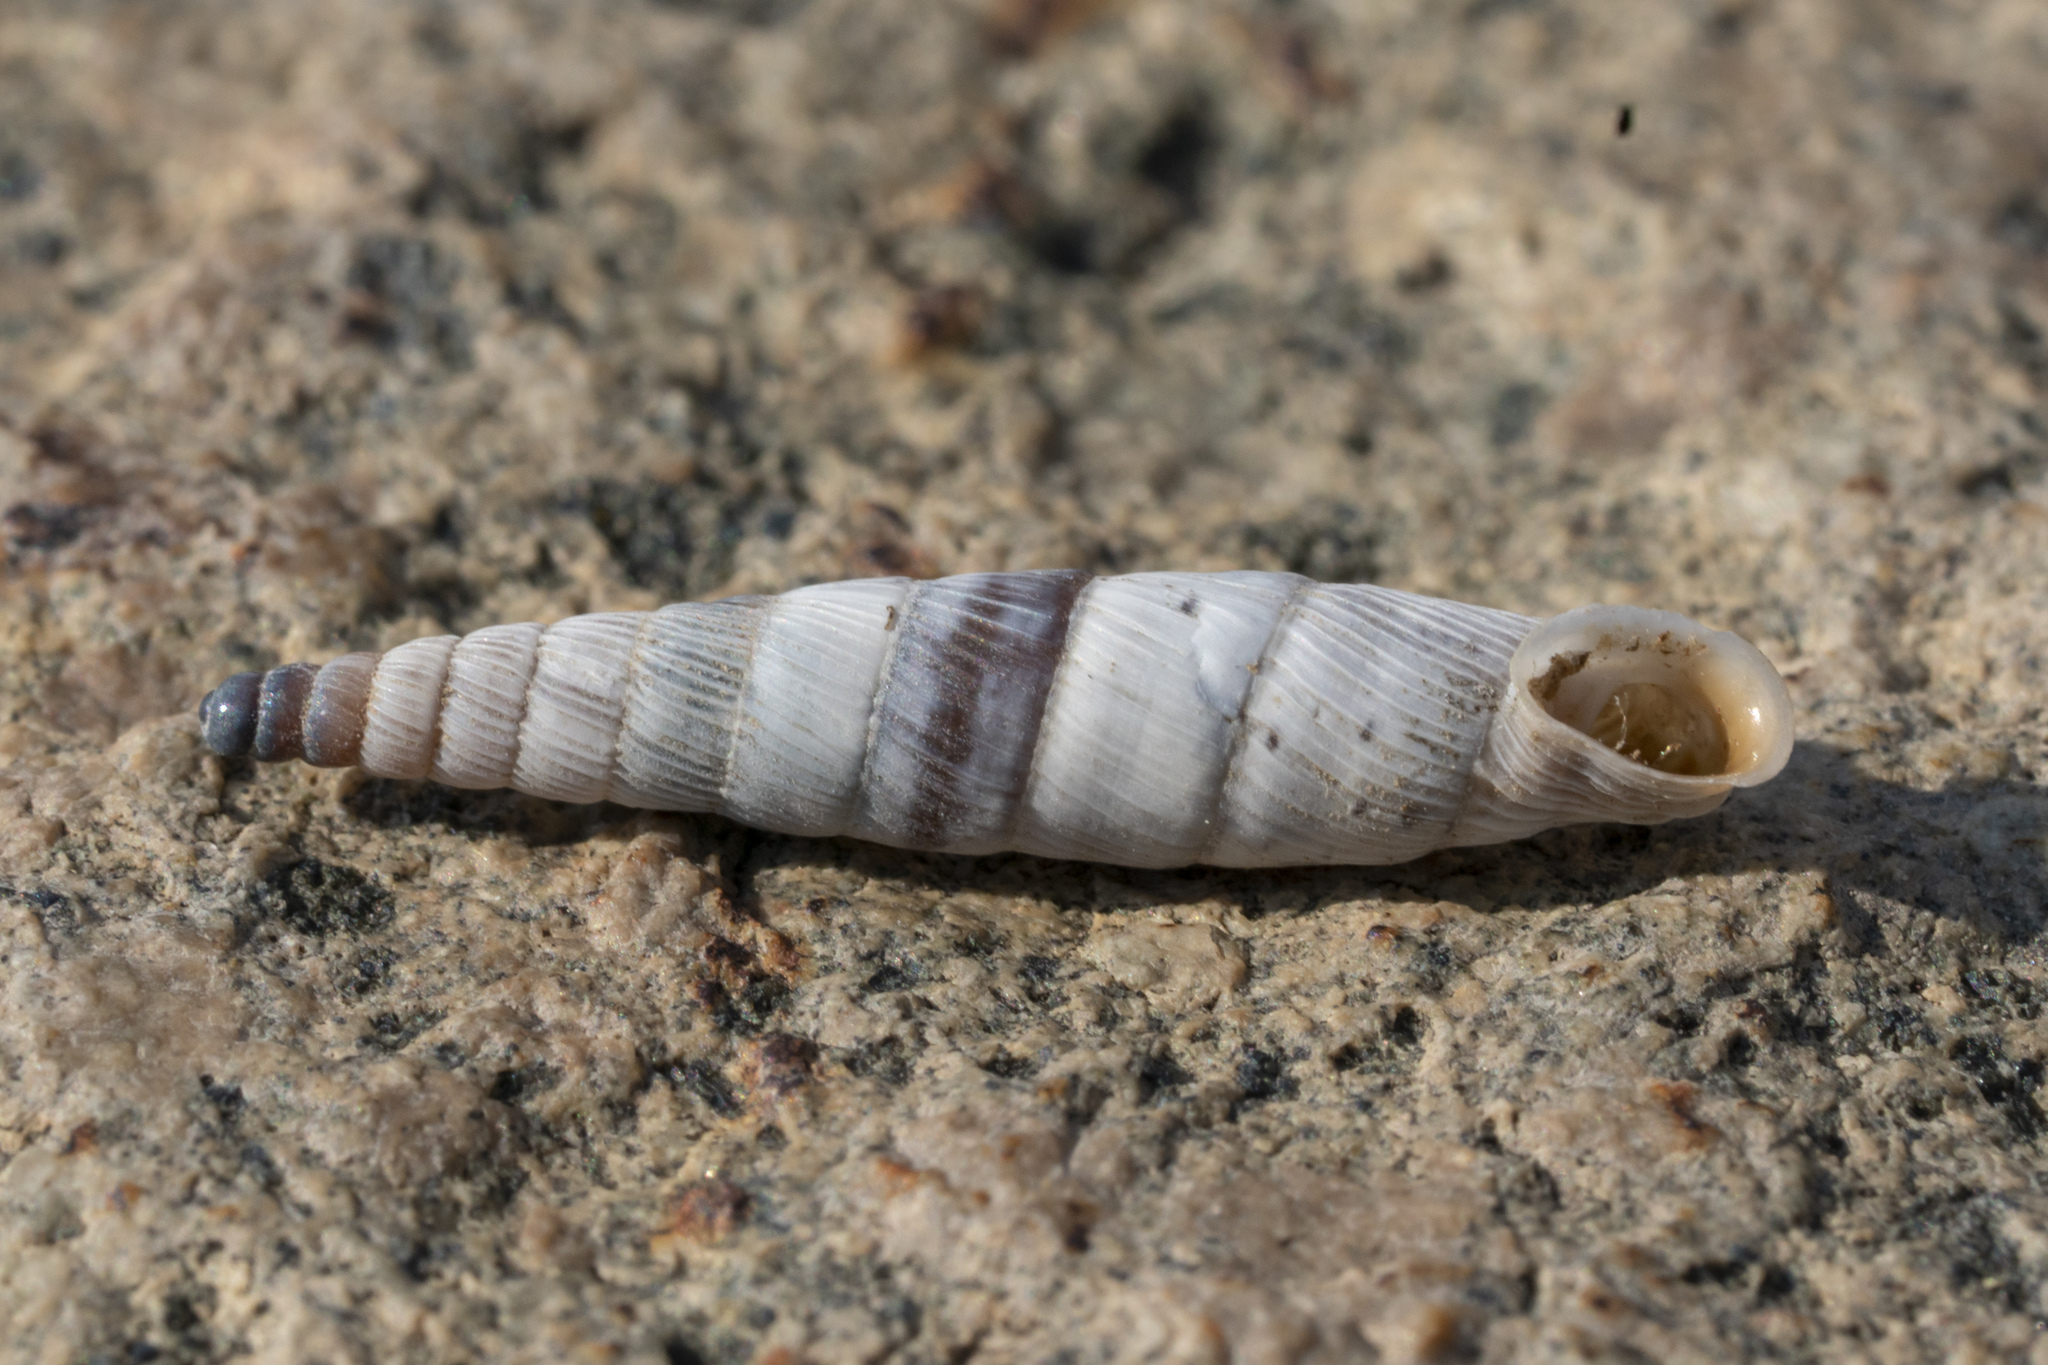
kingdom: Animalia
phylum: Mollusca
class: Gastropoda
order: Stylommatophora
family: Clausiliidae
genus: Albinaria
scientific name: Albinaria brevicollis
